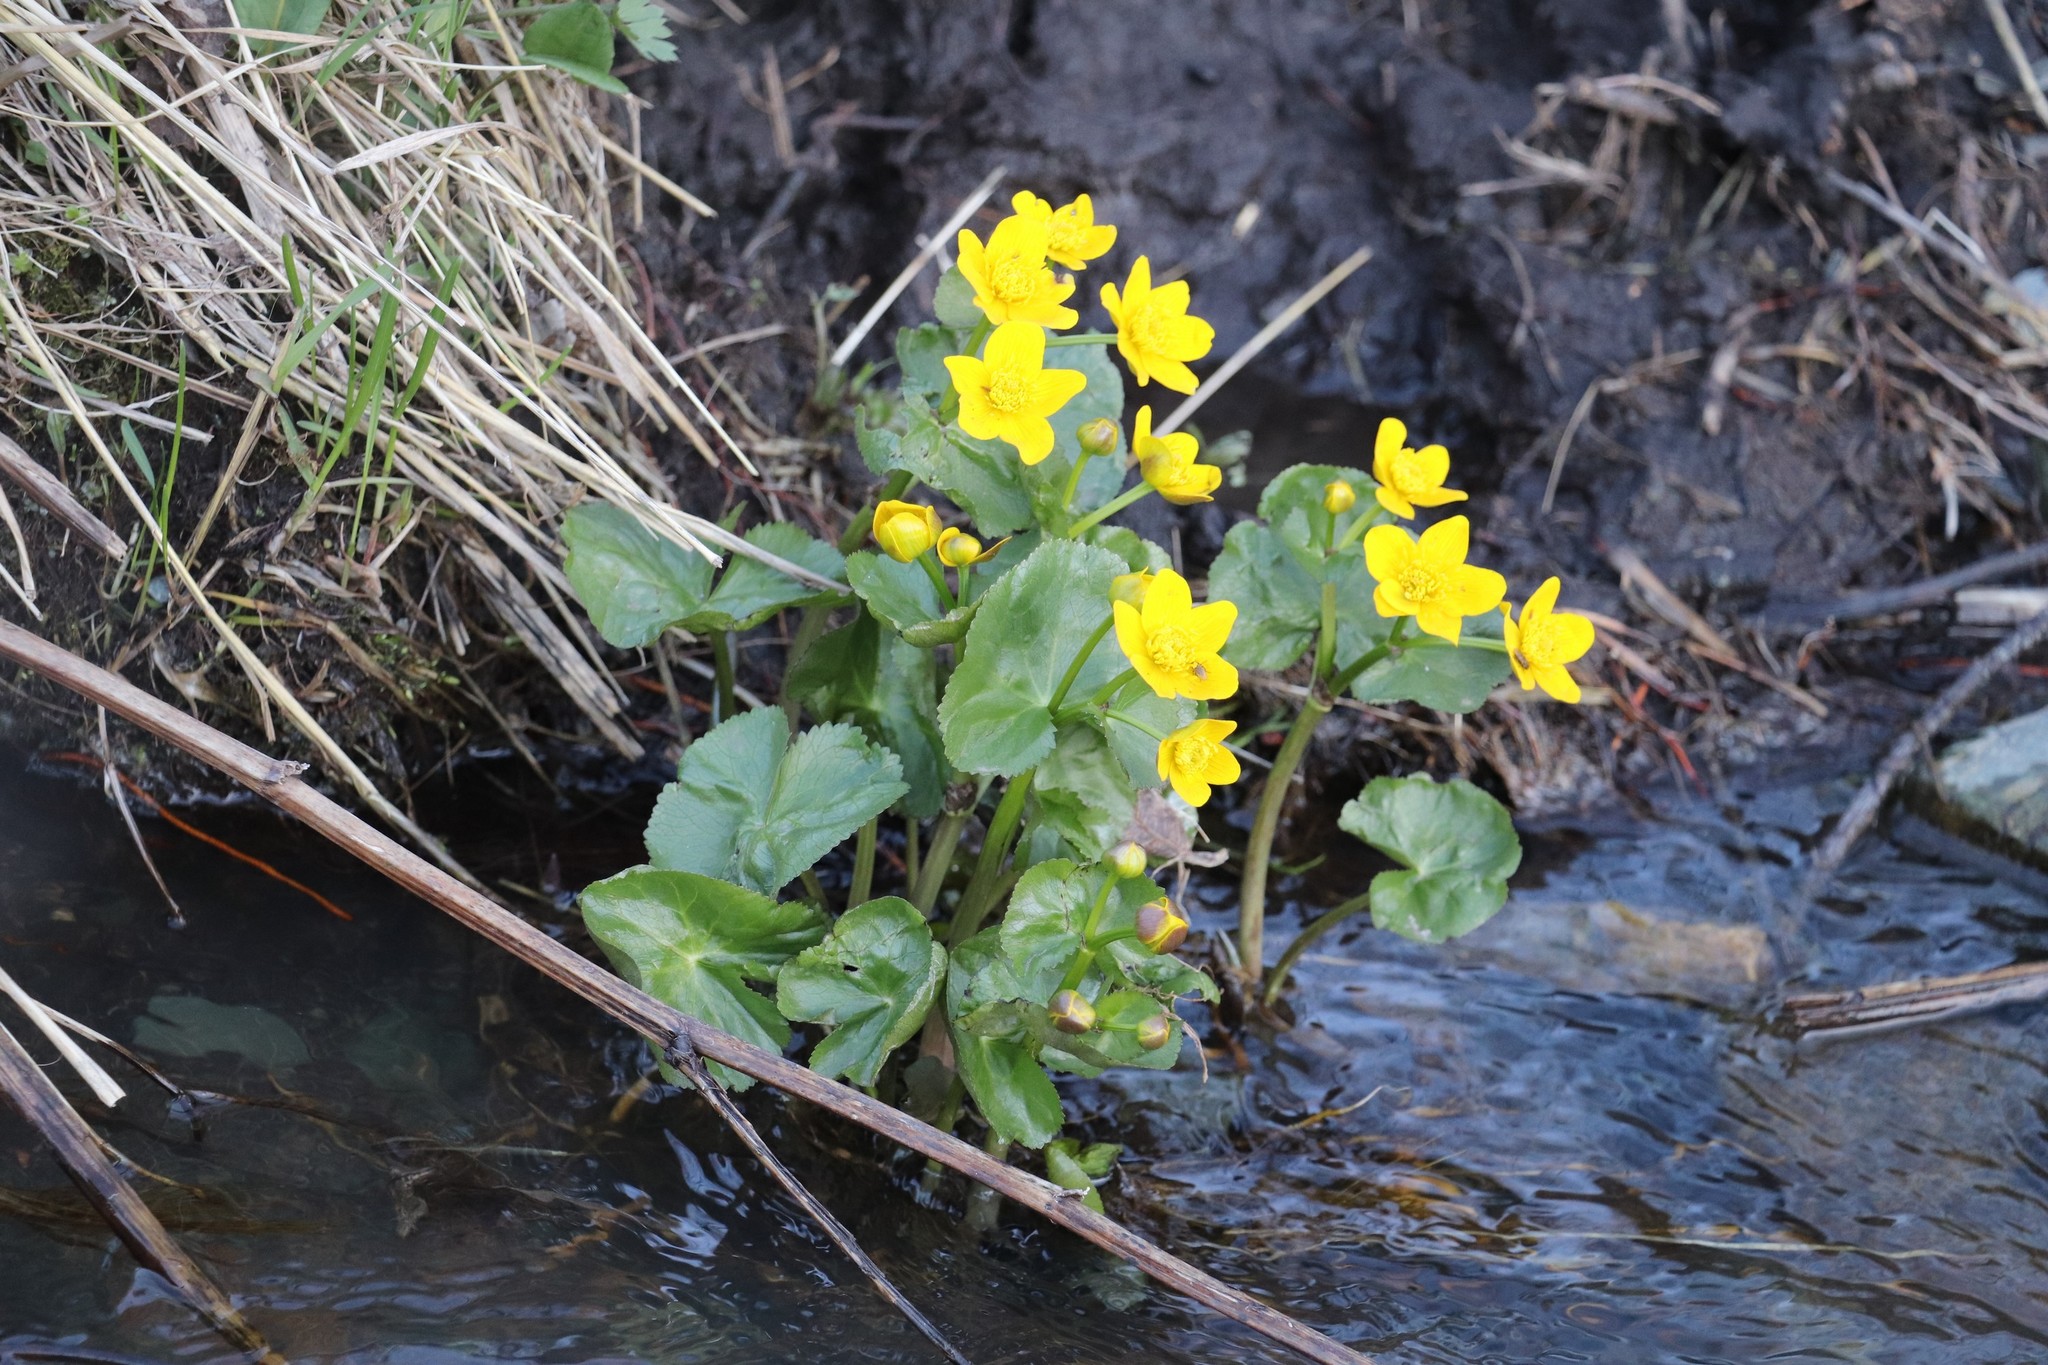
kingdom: Plantae
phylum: Tracheophyta
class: Magnoliopsida
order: Ranunculales
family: Ranunculaceae
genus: Caltha
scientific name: Caltha palustris
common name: Marsh marigold
